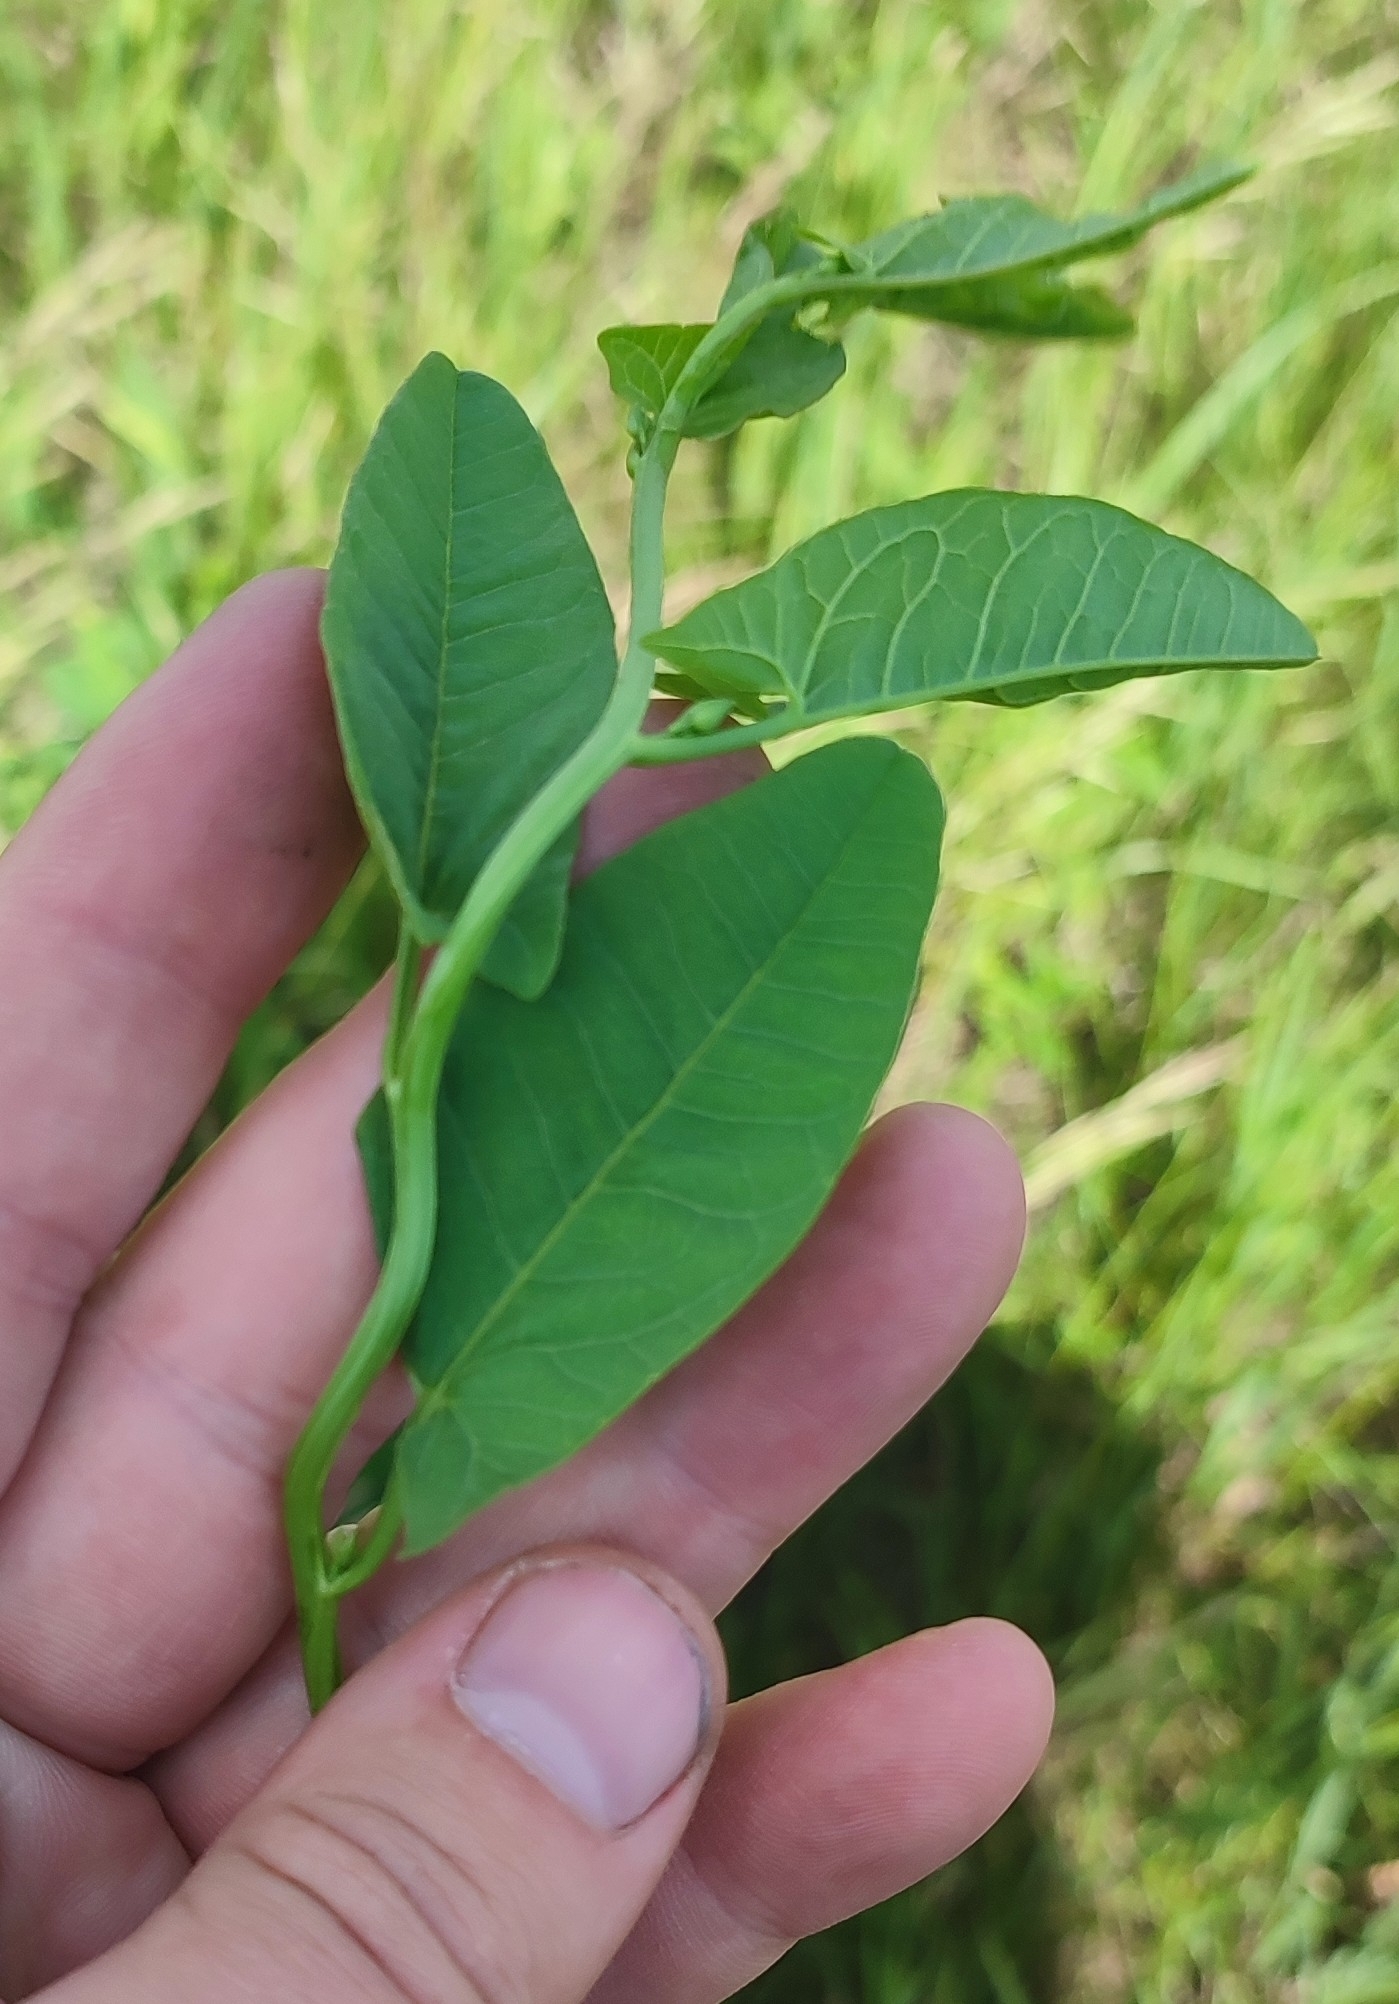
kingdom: Plantae
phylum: Tracheophyta
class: Magnoliopsida
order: Solanales
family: Convolvulaceae
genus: Convolvulus
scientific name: Convolvulus arvensis
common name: Field bindweed
